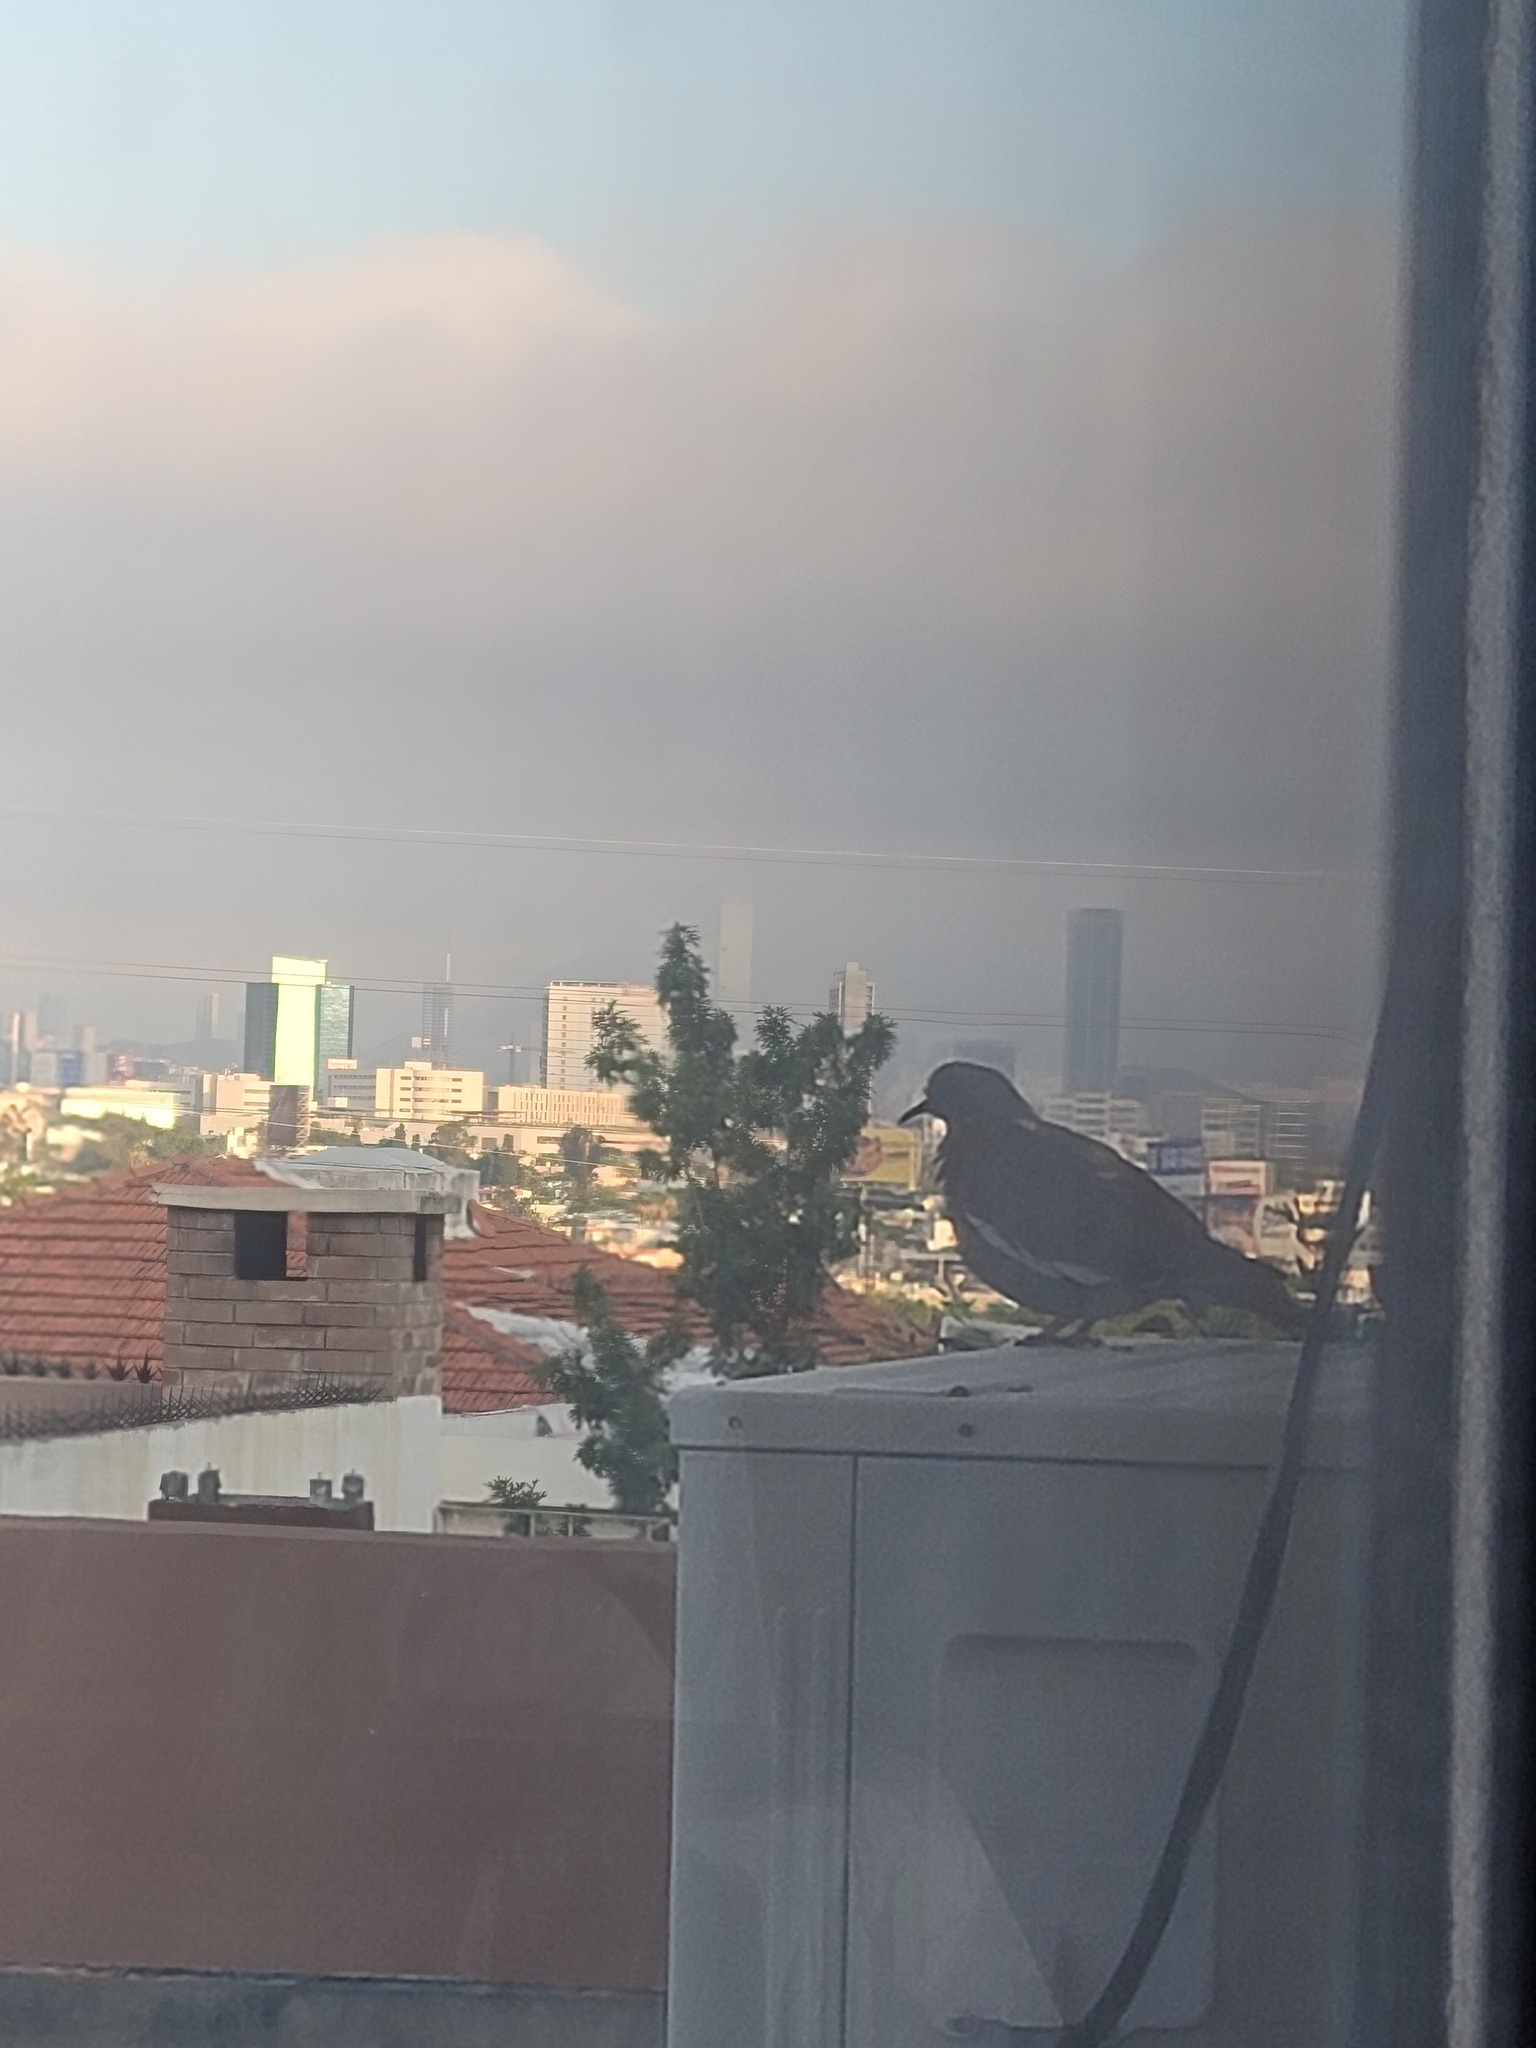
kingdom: Animalia
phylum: Chordata
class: Aves
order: Columbiformes
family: Columbidae
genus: Zenaida
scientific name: Zenaida asiatica
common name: White-winged dove
